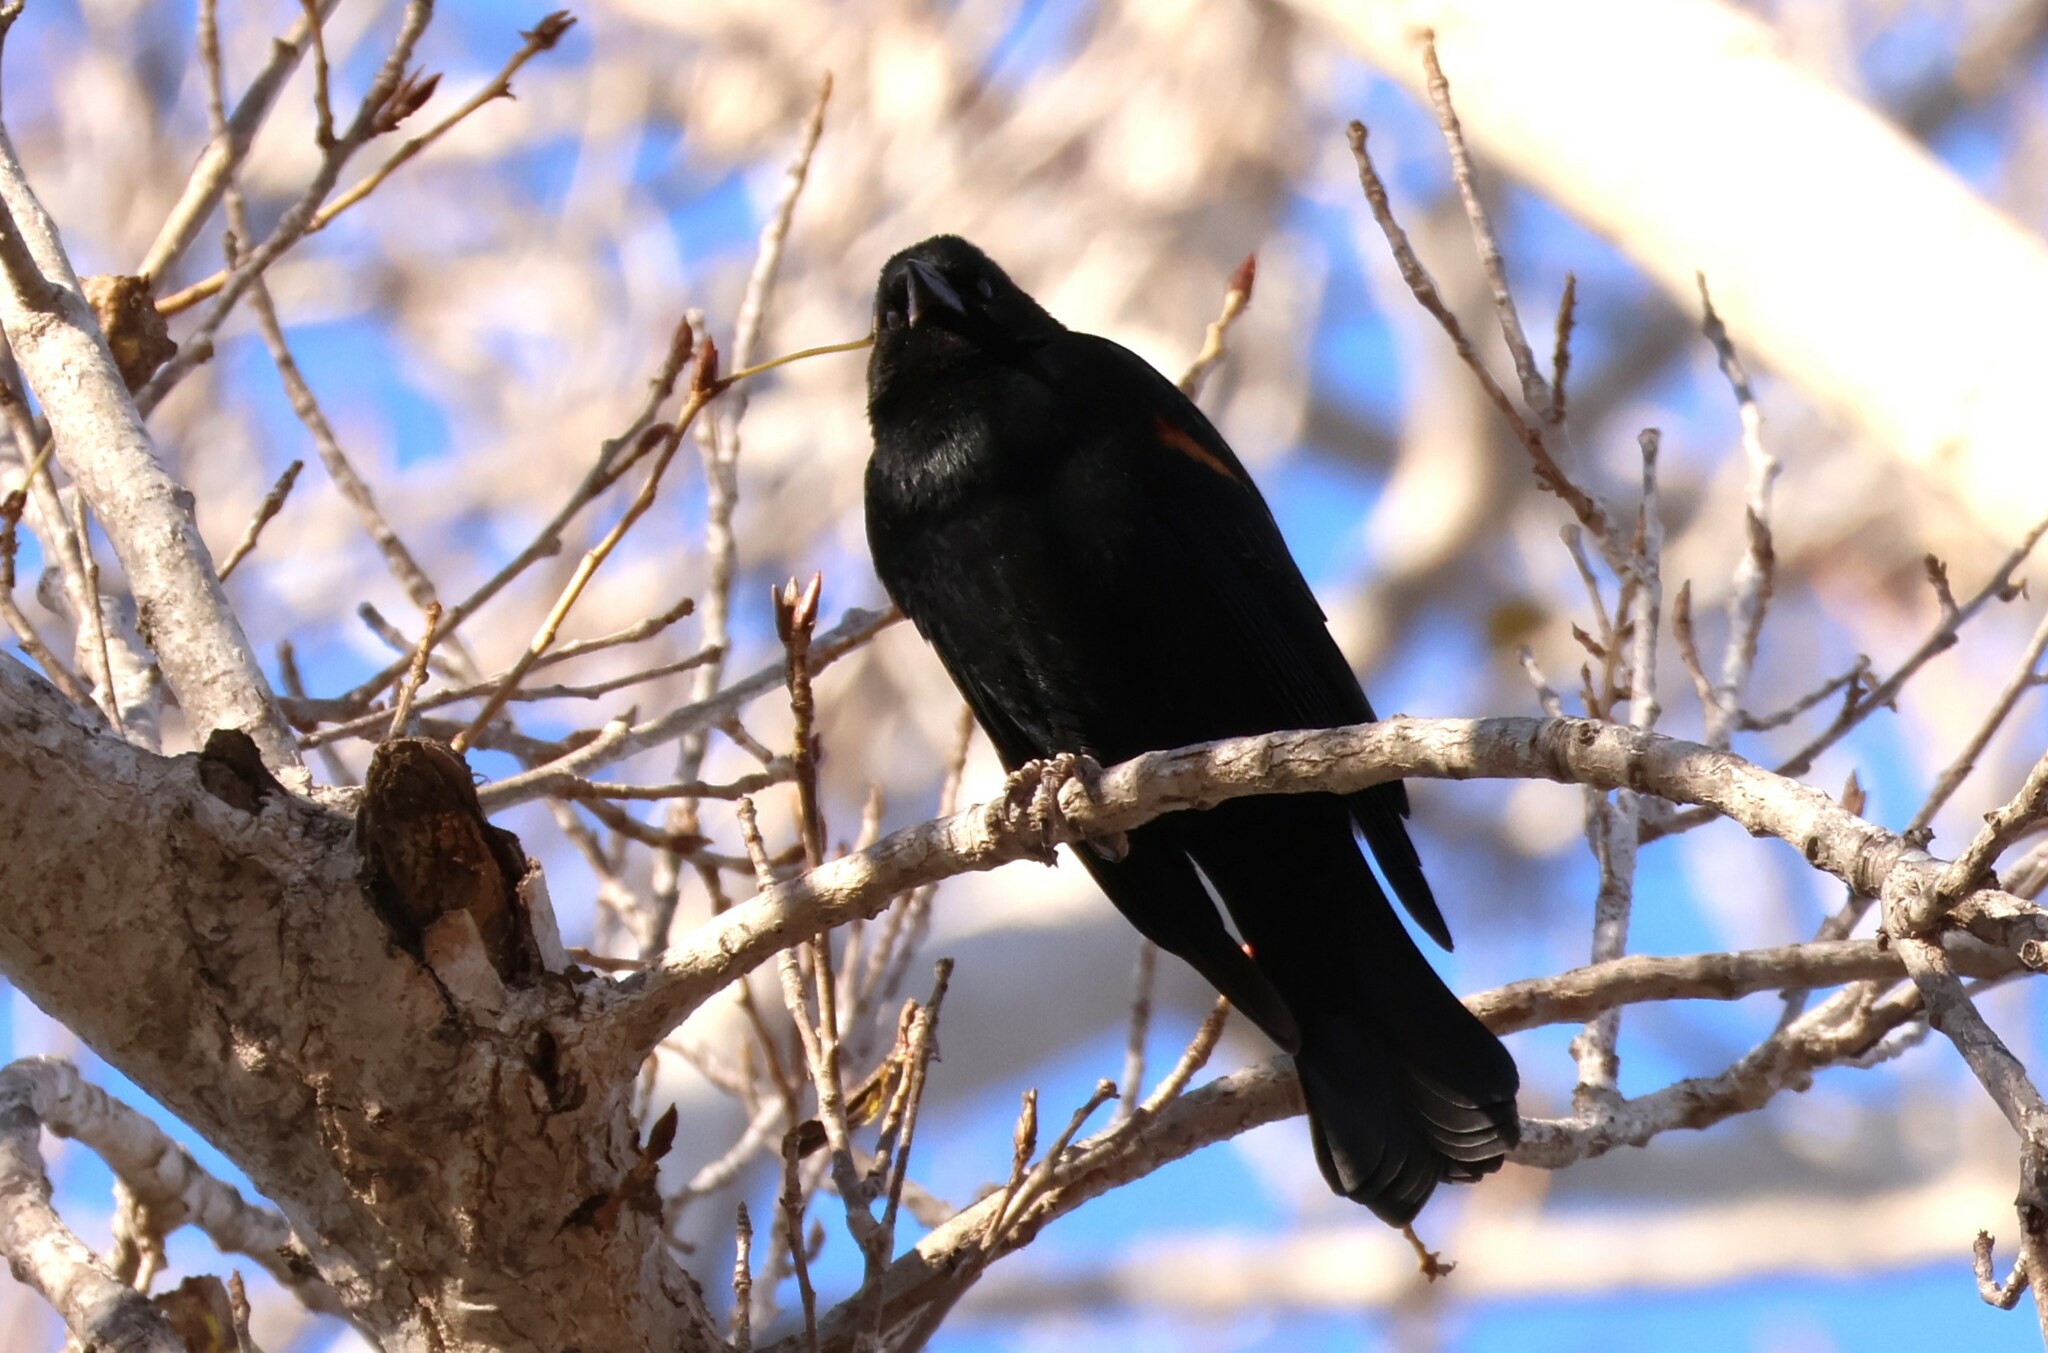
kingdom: Animalia
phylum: Chordata
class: Aves
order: Passeriformes
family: Icteridae
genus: Agelaius
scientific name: Agelaius phoeniceus
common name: Red-winged blackbird
